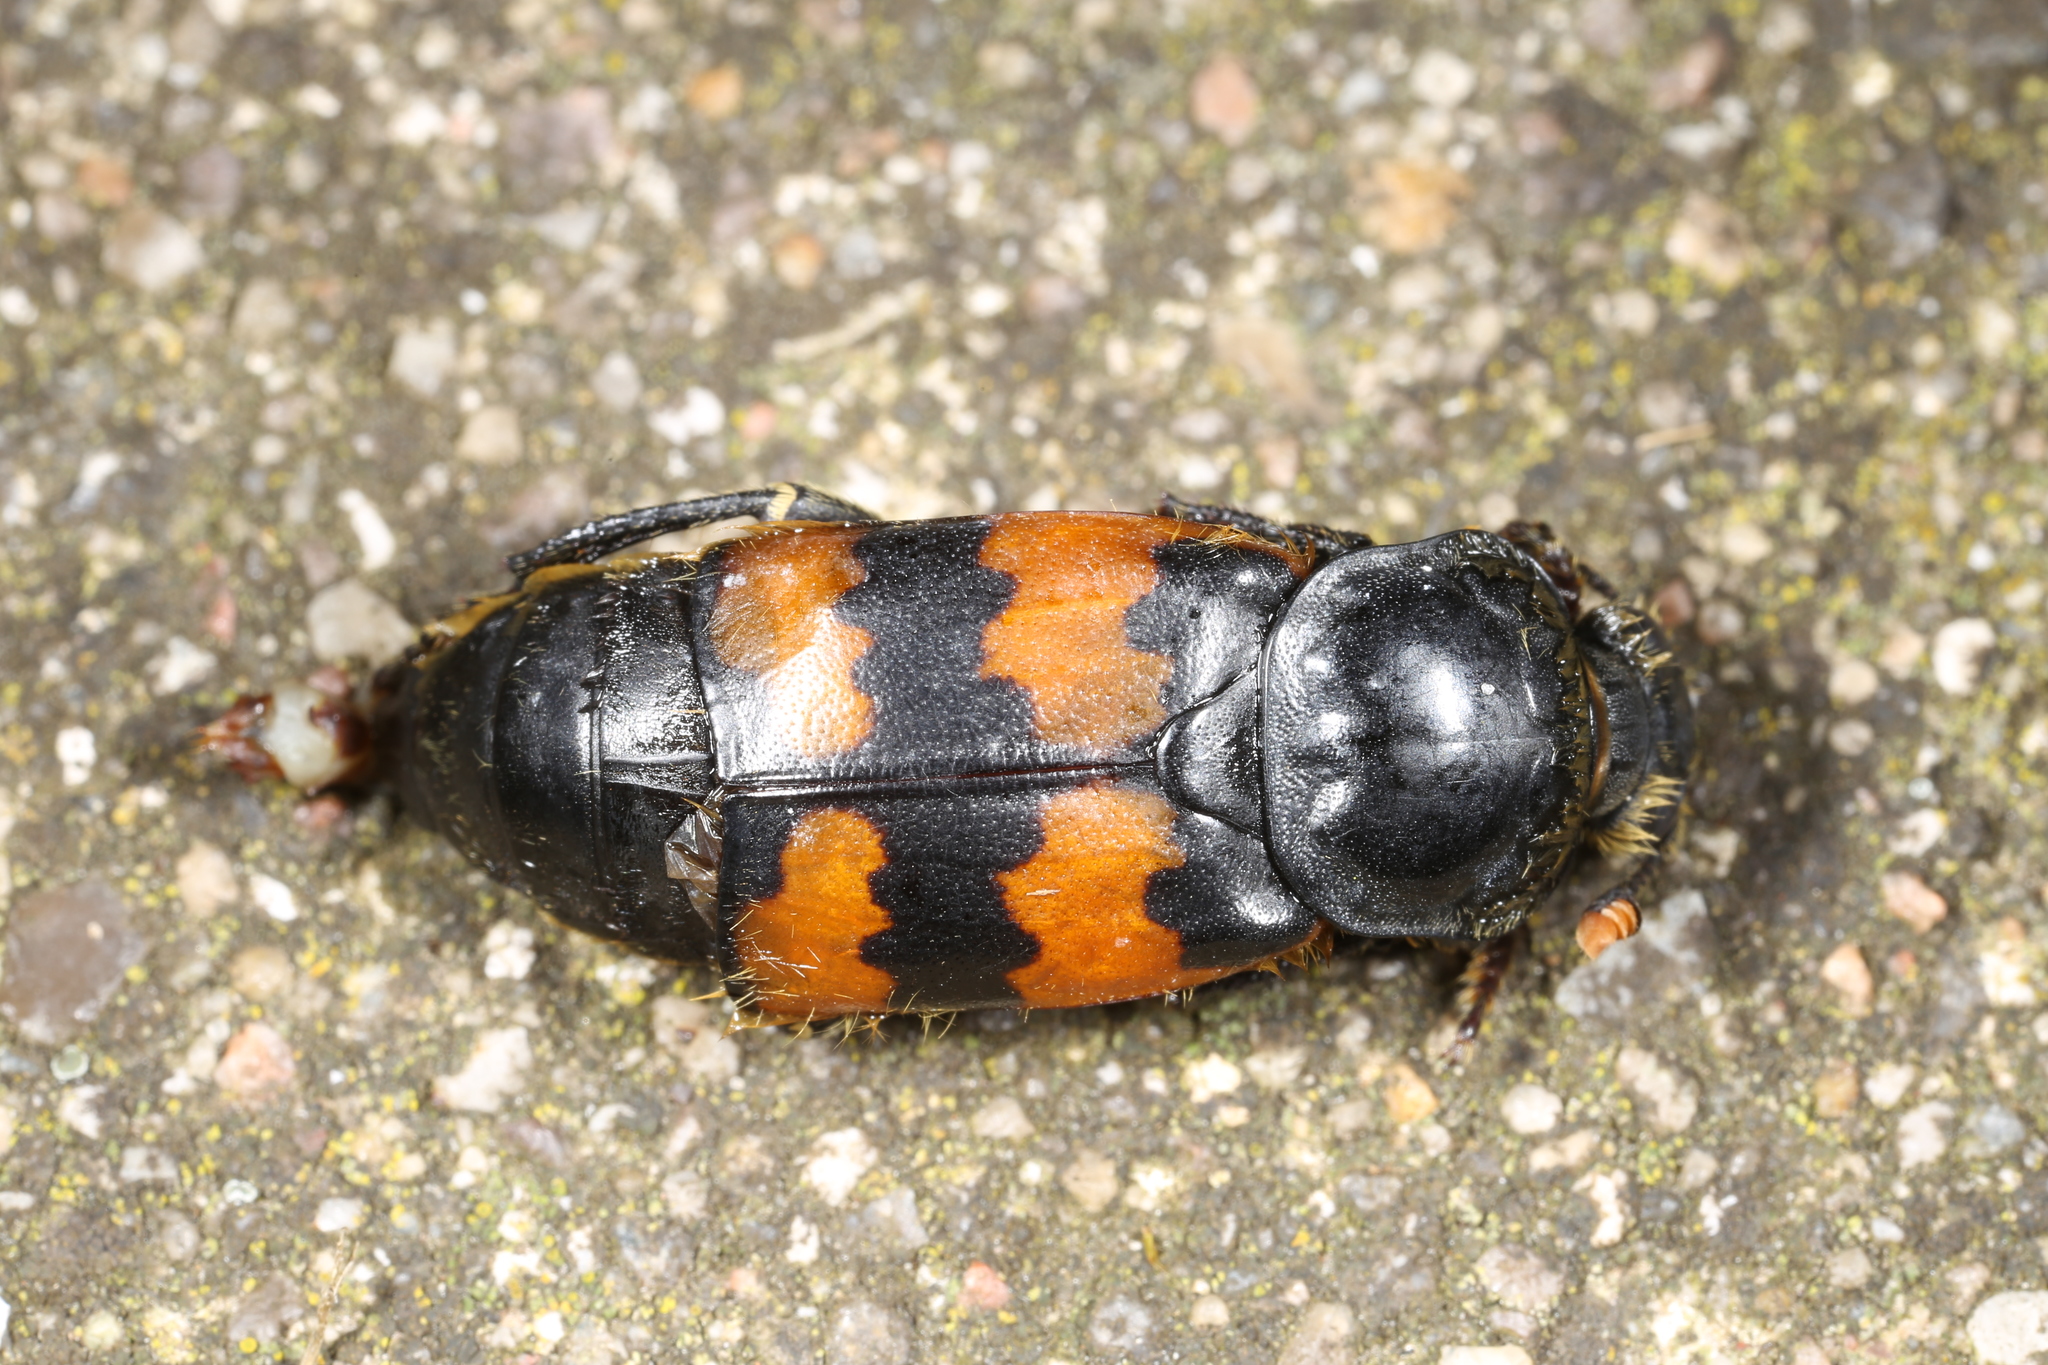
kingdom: Animalia
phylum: Arthropoda
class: Insecta
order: Coleoptera
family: Staphylinidae
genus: Nicrophorus
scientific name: Nicrophorus vespillo
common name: Common burying beetle
